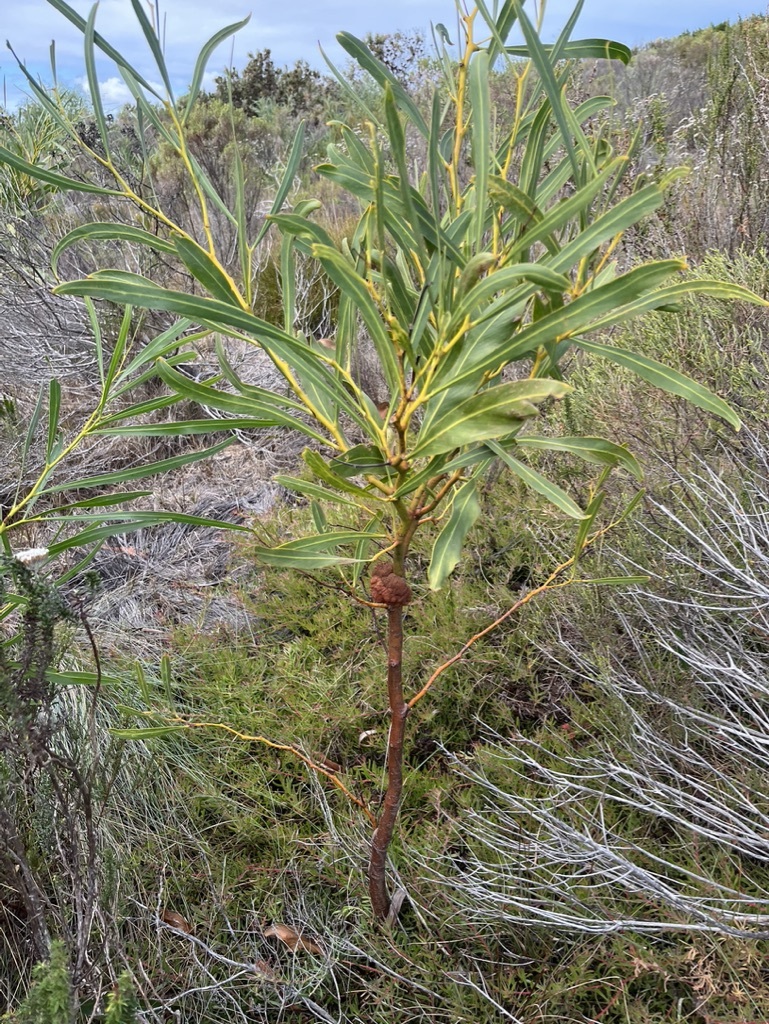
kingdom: Plantae
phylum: Tracheophyta
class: Magnoliopsida
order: Fabales
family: Fabaceae
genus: Acacia
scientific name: Acacia saligna
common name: Orange wattle
